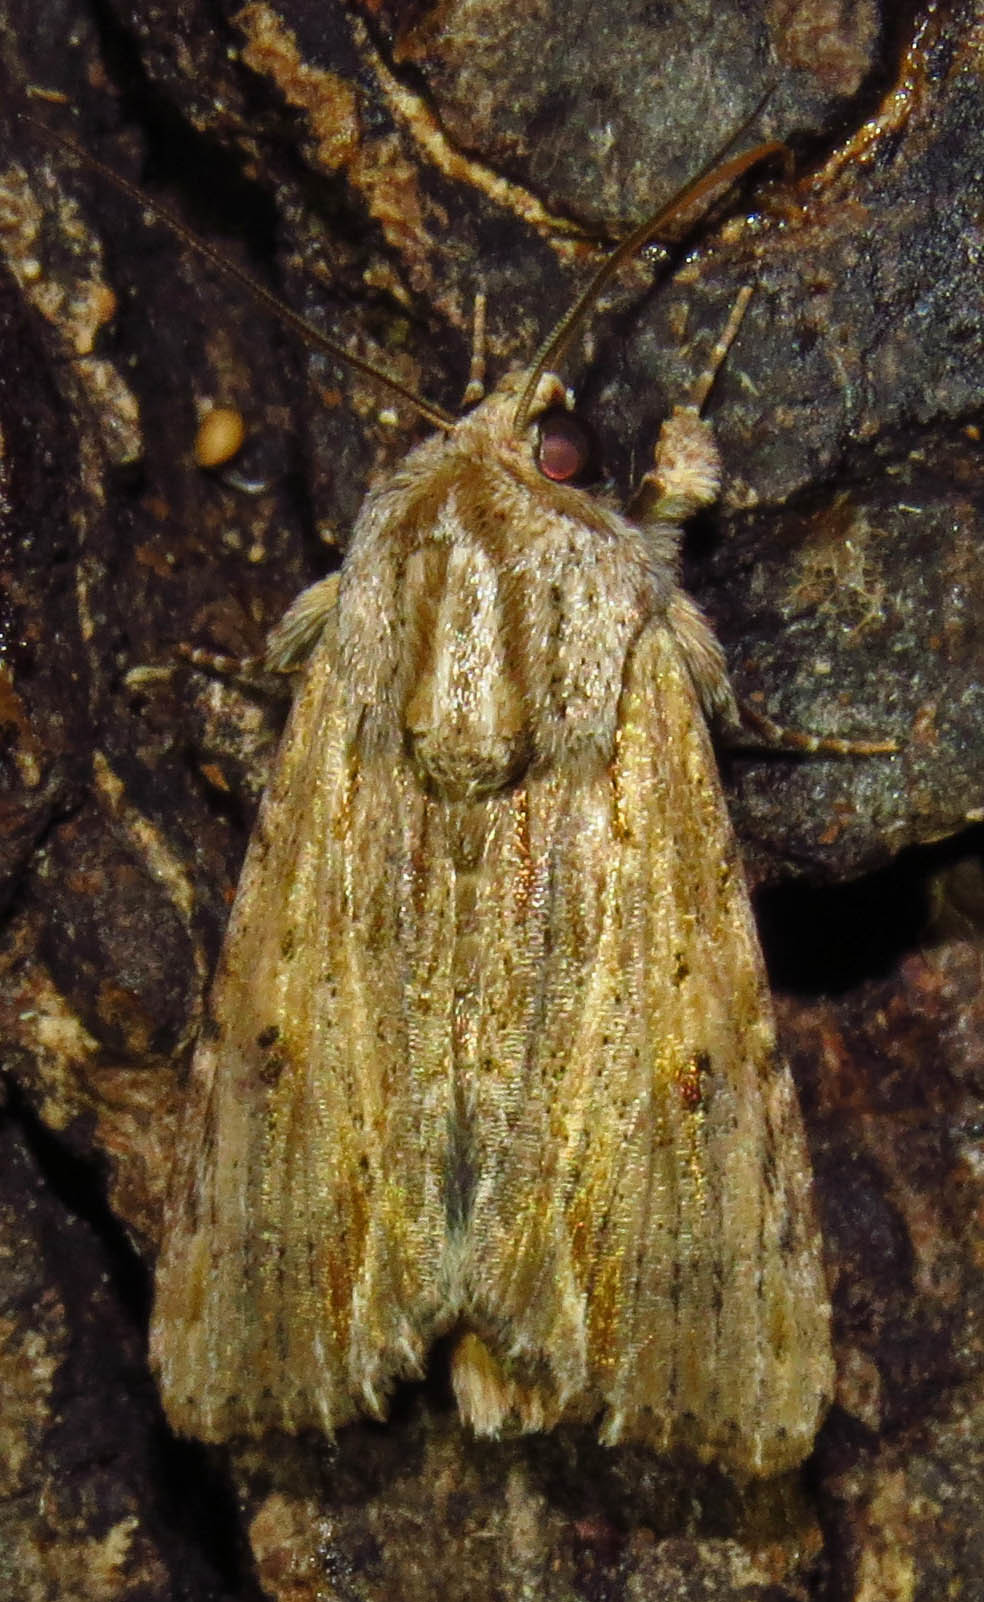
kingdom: Animalia
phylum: Arthropoda
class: Insecta
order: Lepidoptera
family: Noctuidae
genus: Spodoptera
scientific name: Spodoptera eridania
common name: Southern army worm
